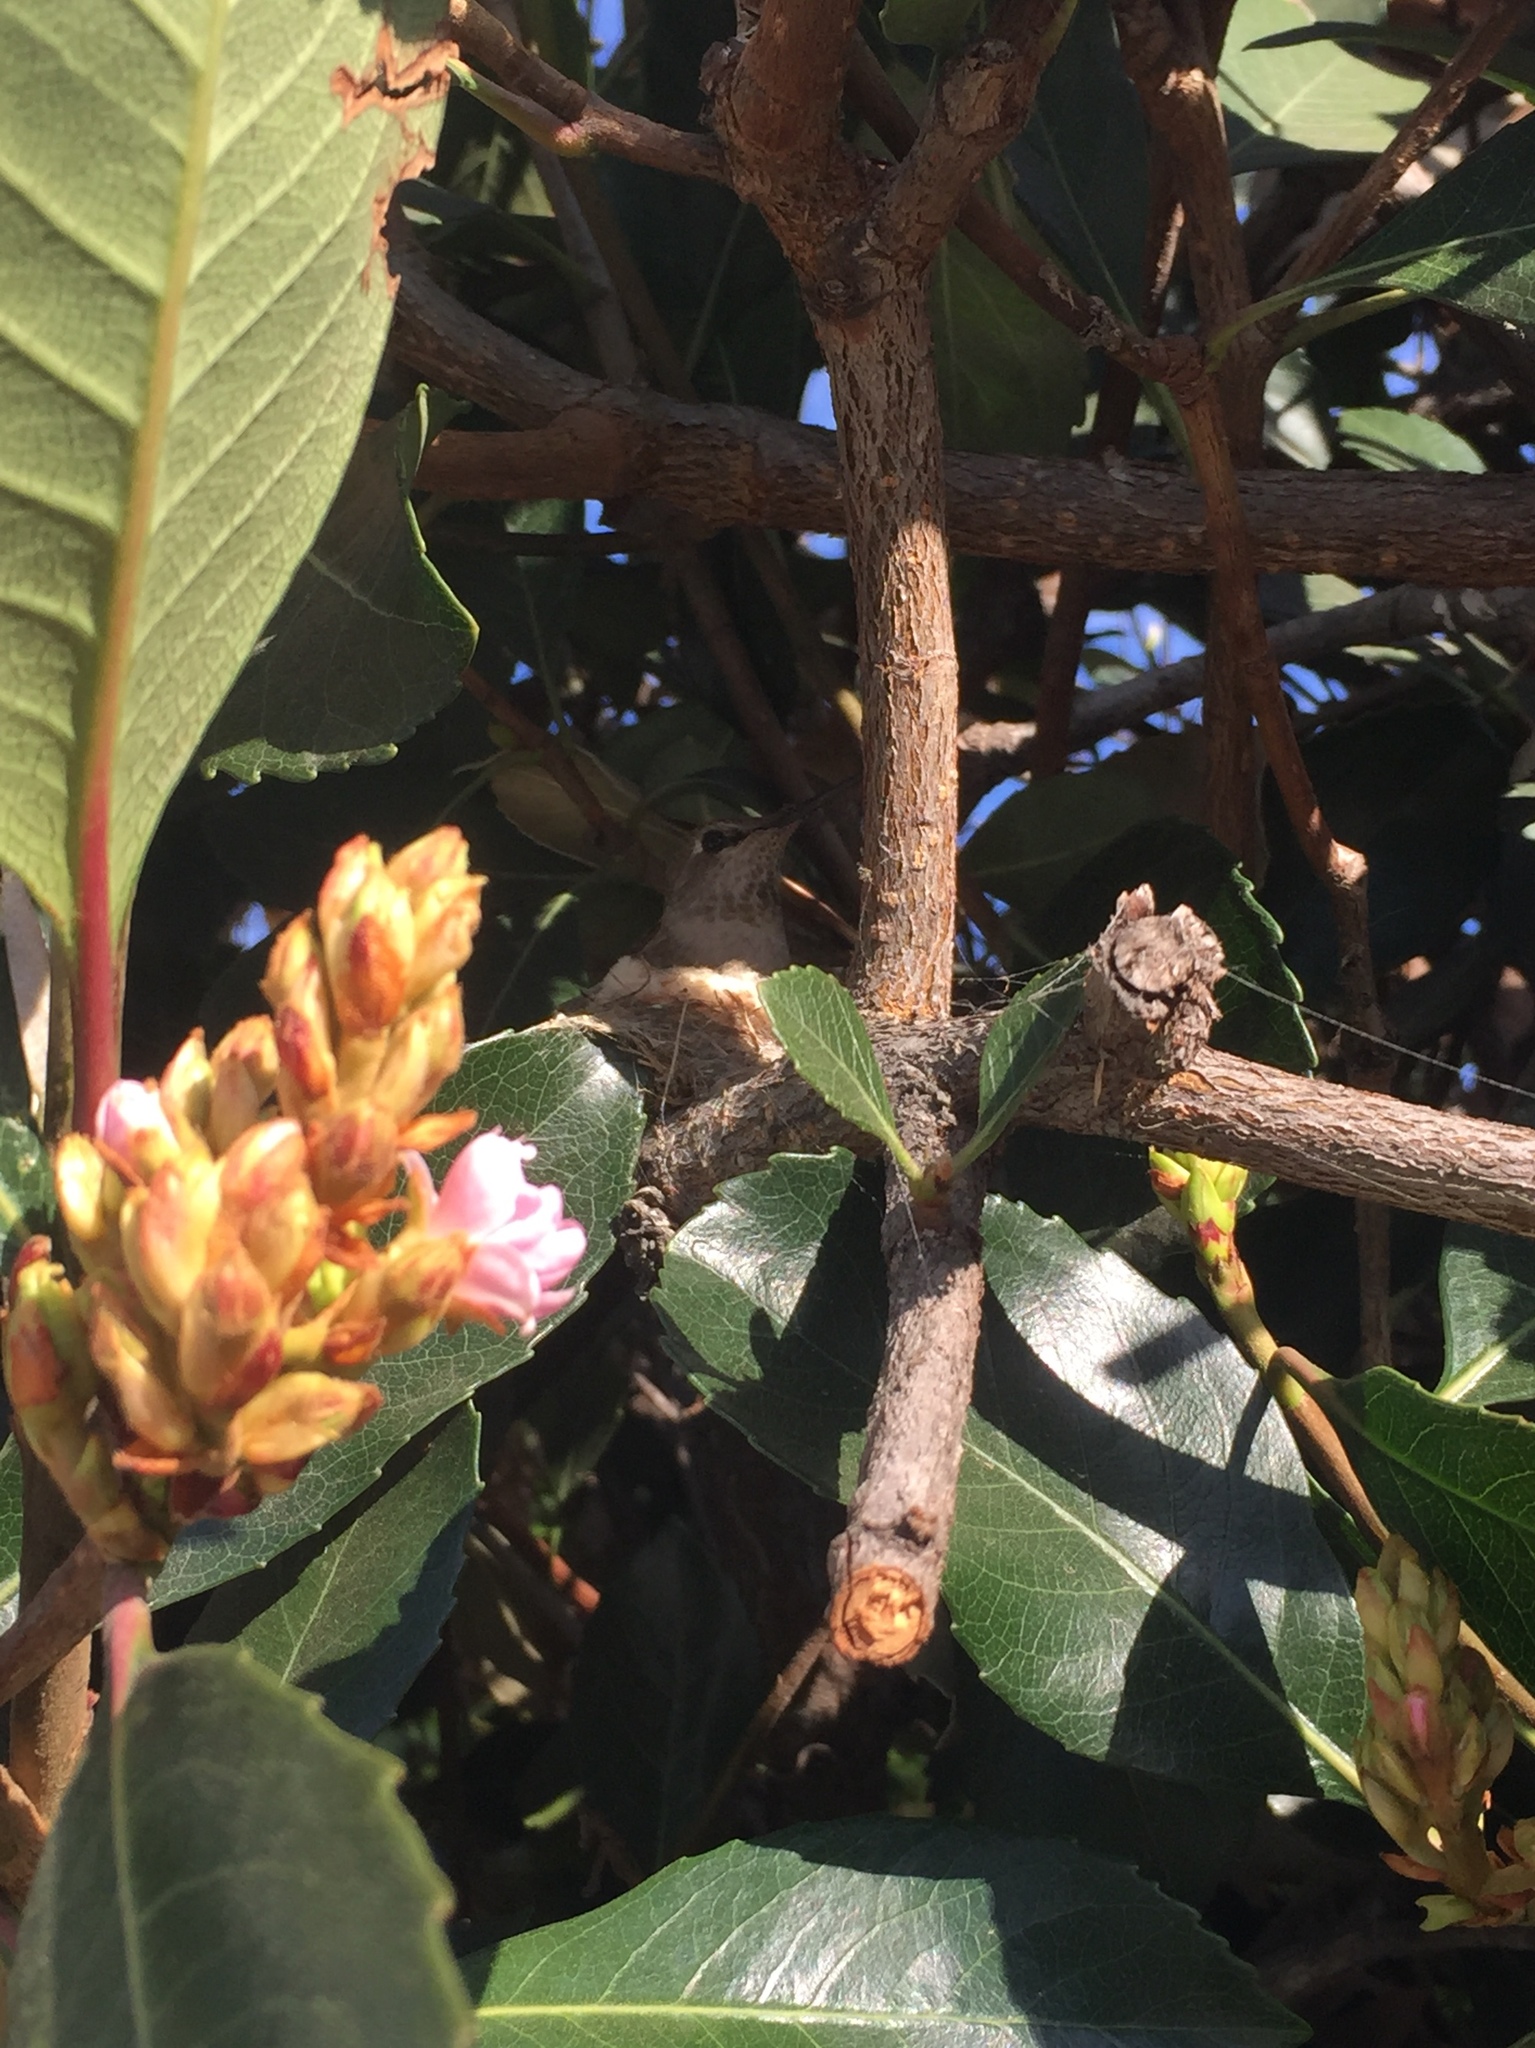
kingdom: Animalia
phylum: Chordata
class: Aves
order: Apodiformes
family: Trochilidae
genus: Calypte
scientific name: Calypte anna
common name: Anna's hummingbird
